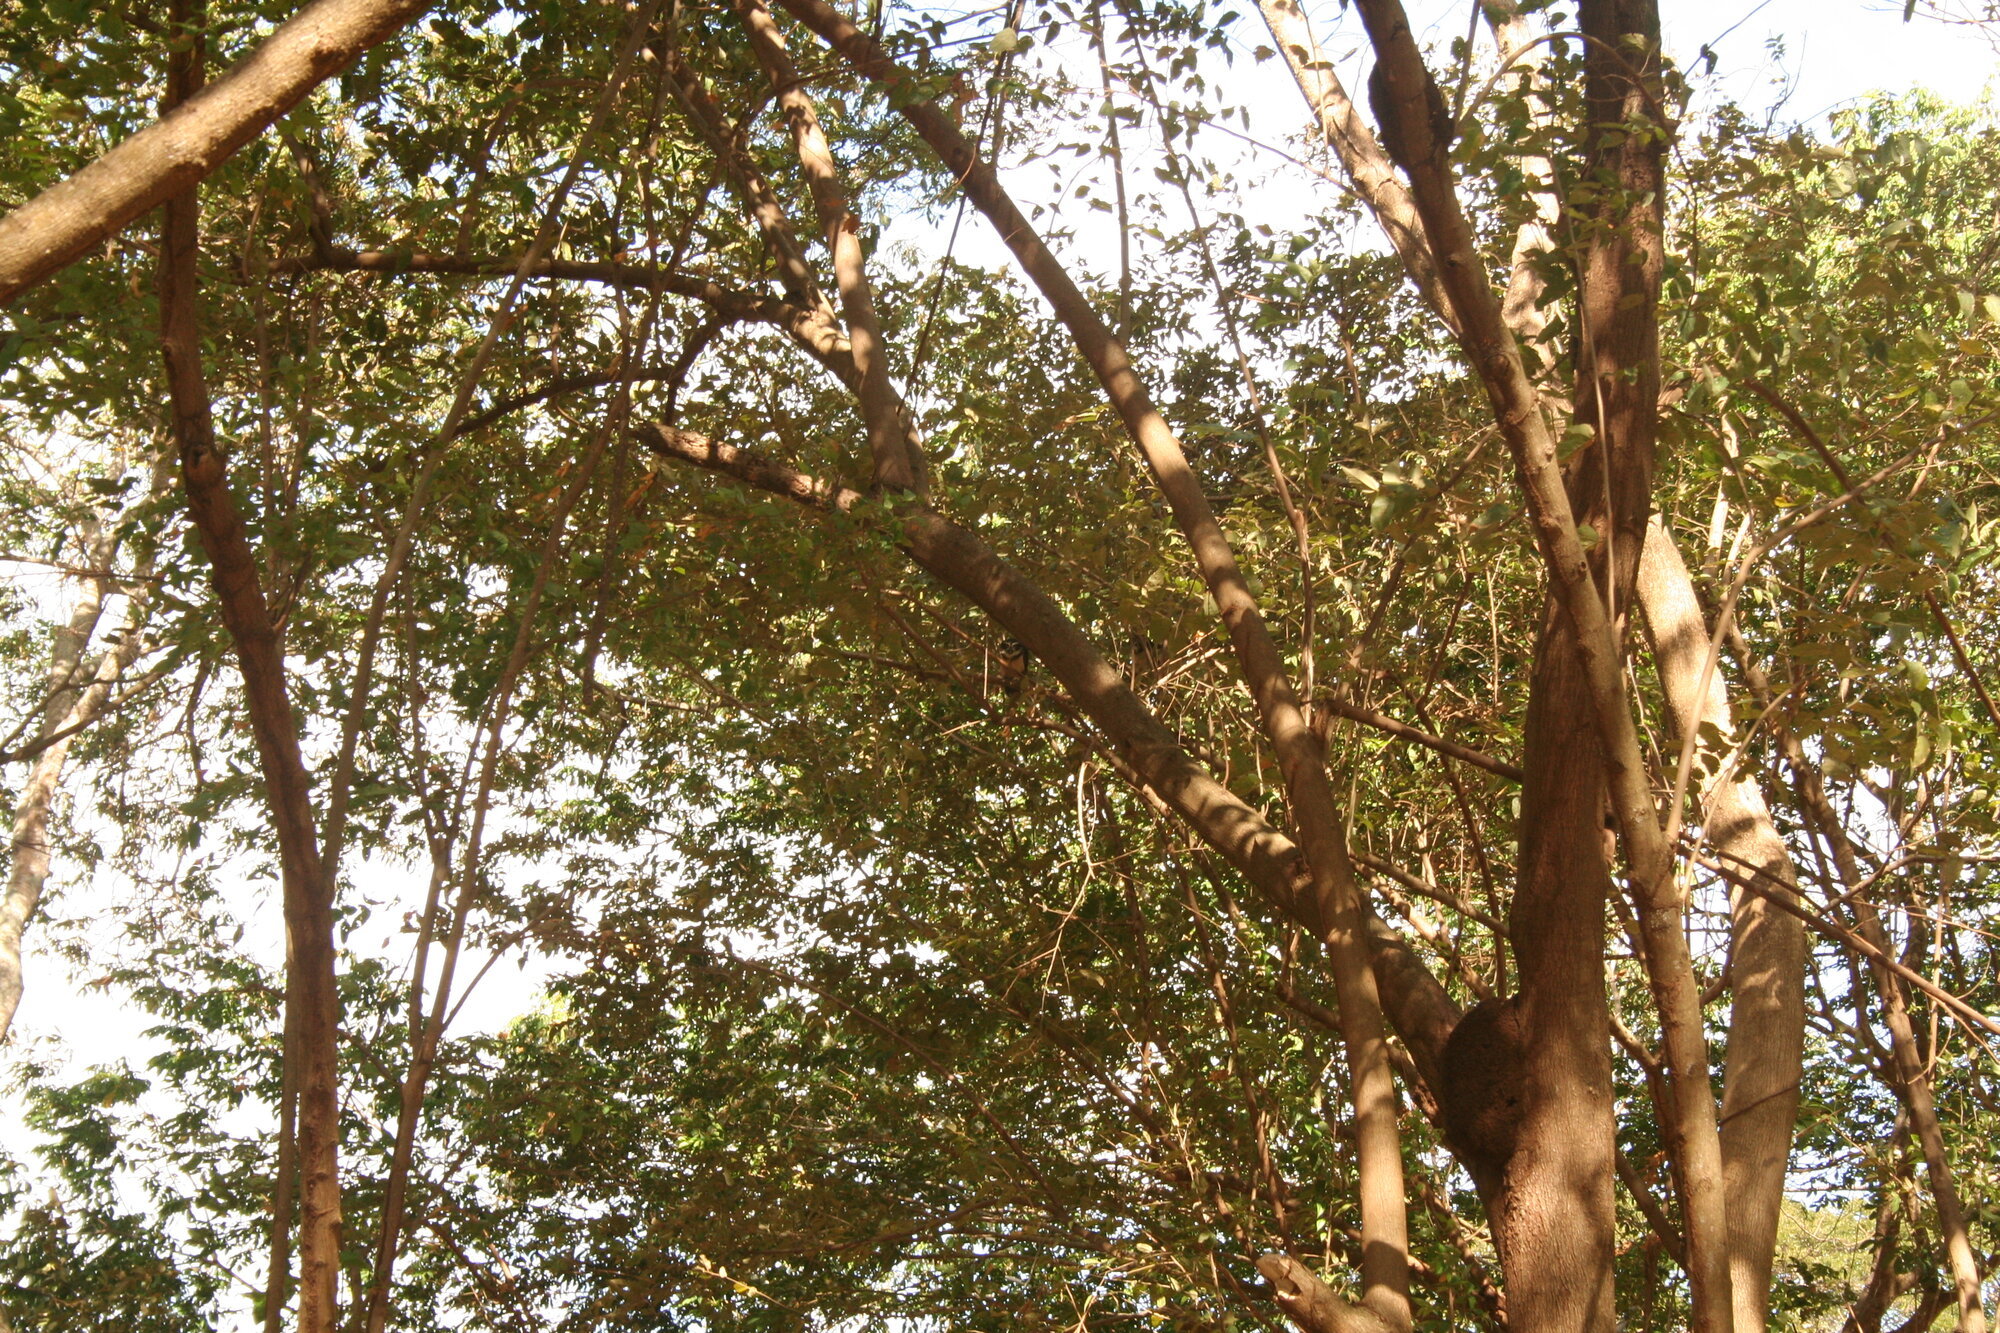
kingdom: Animalia
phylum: Chordata
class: Aves
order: Strigiformes
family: Strigidae
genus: Pulsatrix
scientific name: Pulsatrix perspicillata
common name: Spectacled owl
